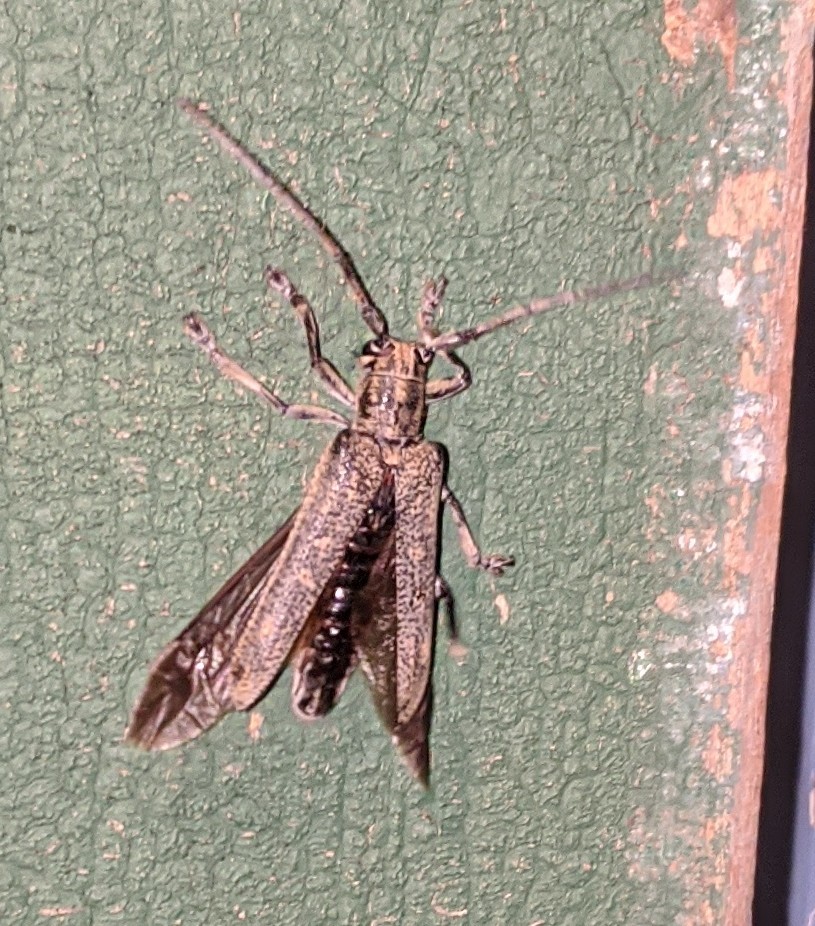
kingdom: Animalia
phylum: Arthropoda
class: Insecta
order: Coleoptera
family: Cerambycidae
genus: Saperda
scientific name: Saperda calcarata
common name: Poplar borer
